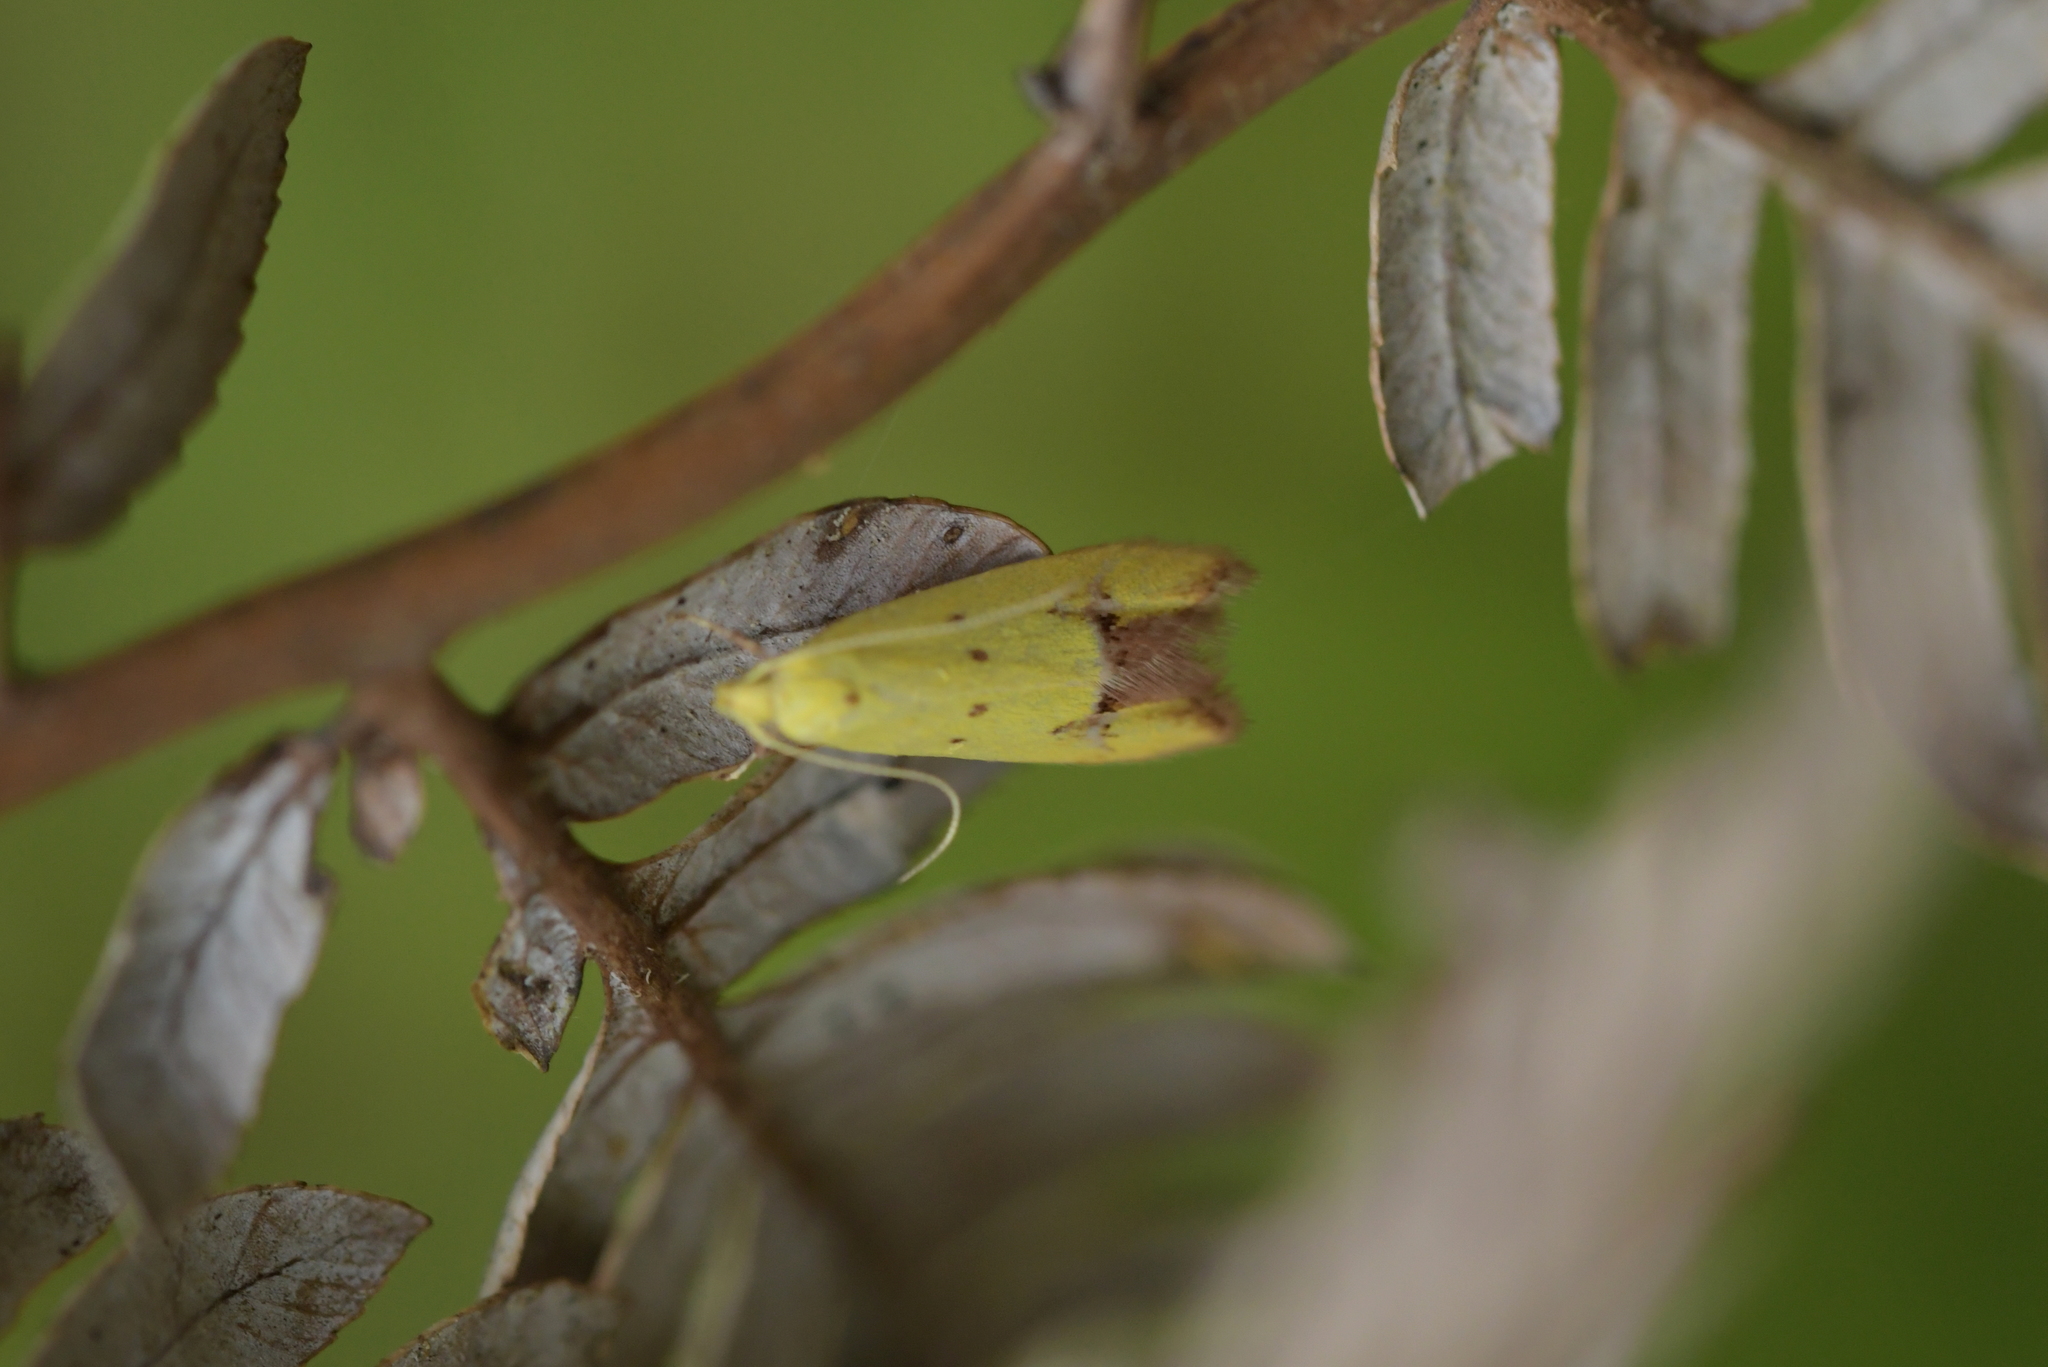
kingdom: Animalia
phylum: Arthropoda
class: Insecta
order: Lepidoptera
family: Oecophoridae
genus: Gymnobathra
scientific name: Gymnobathra flavidella
